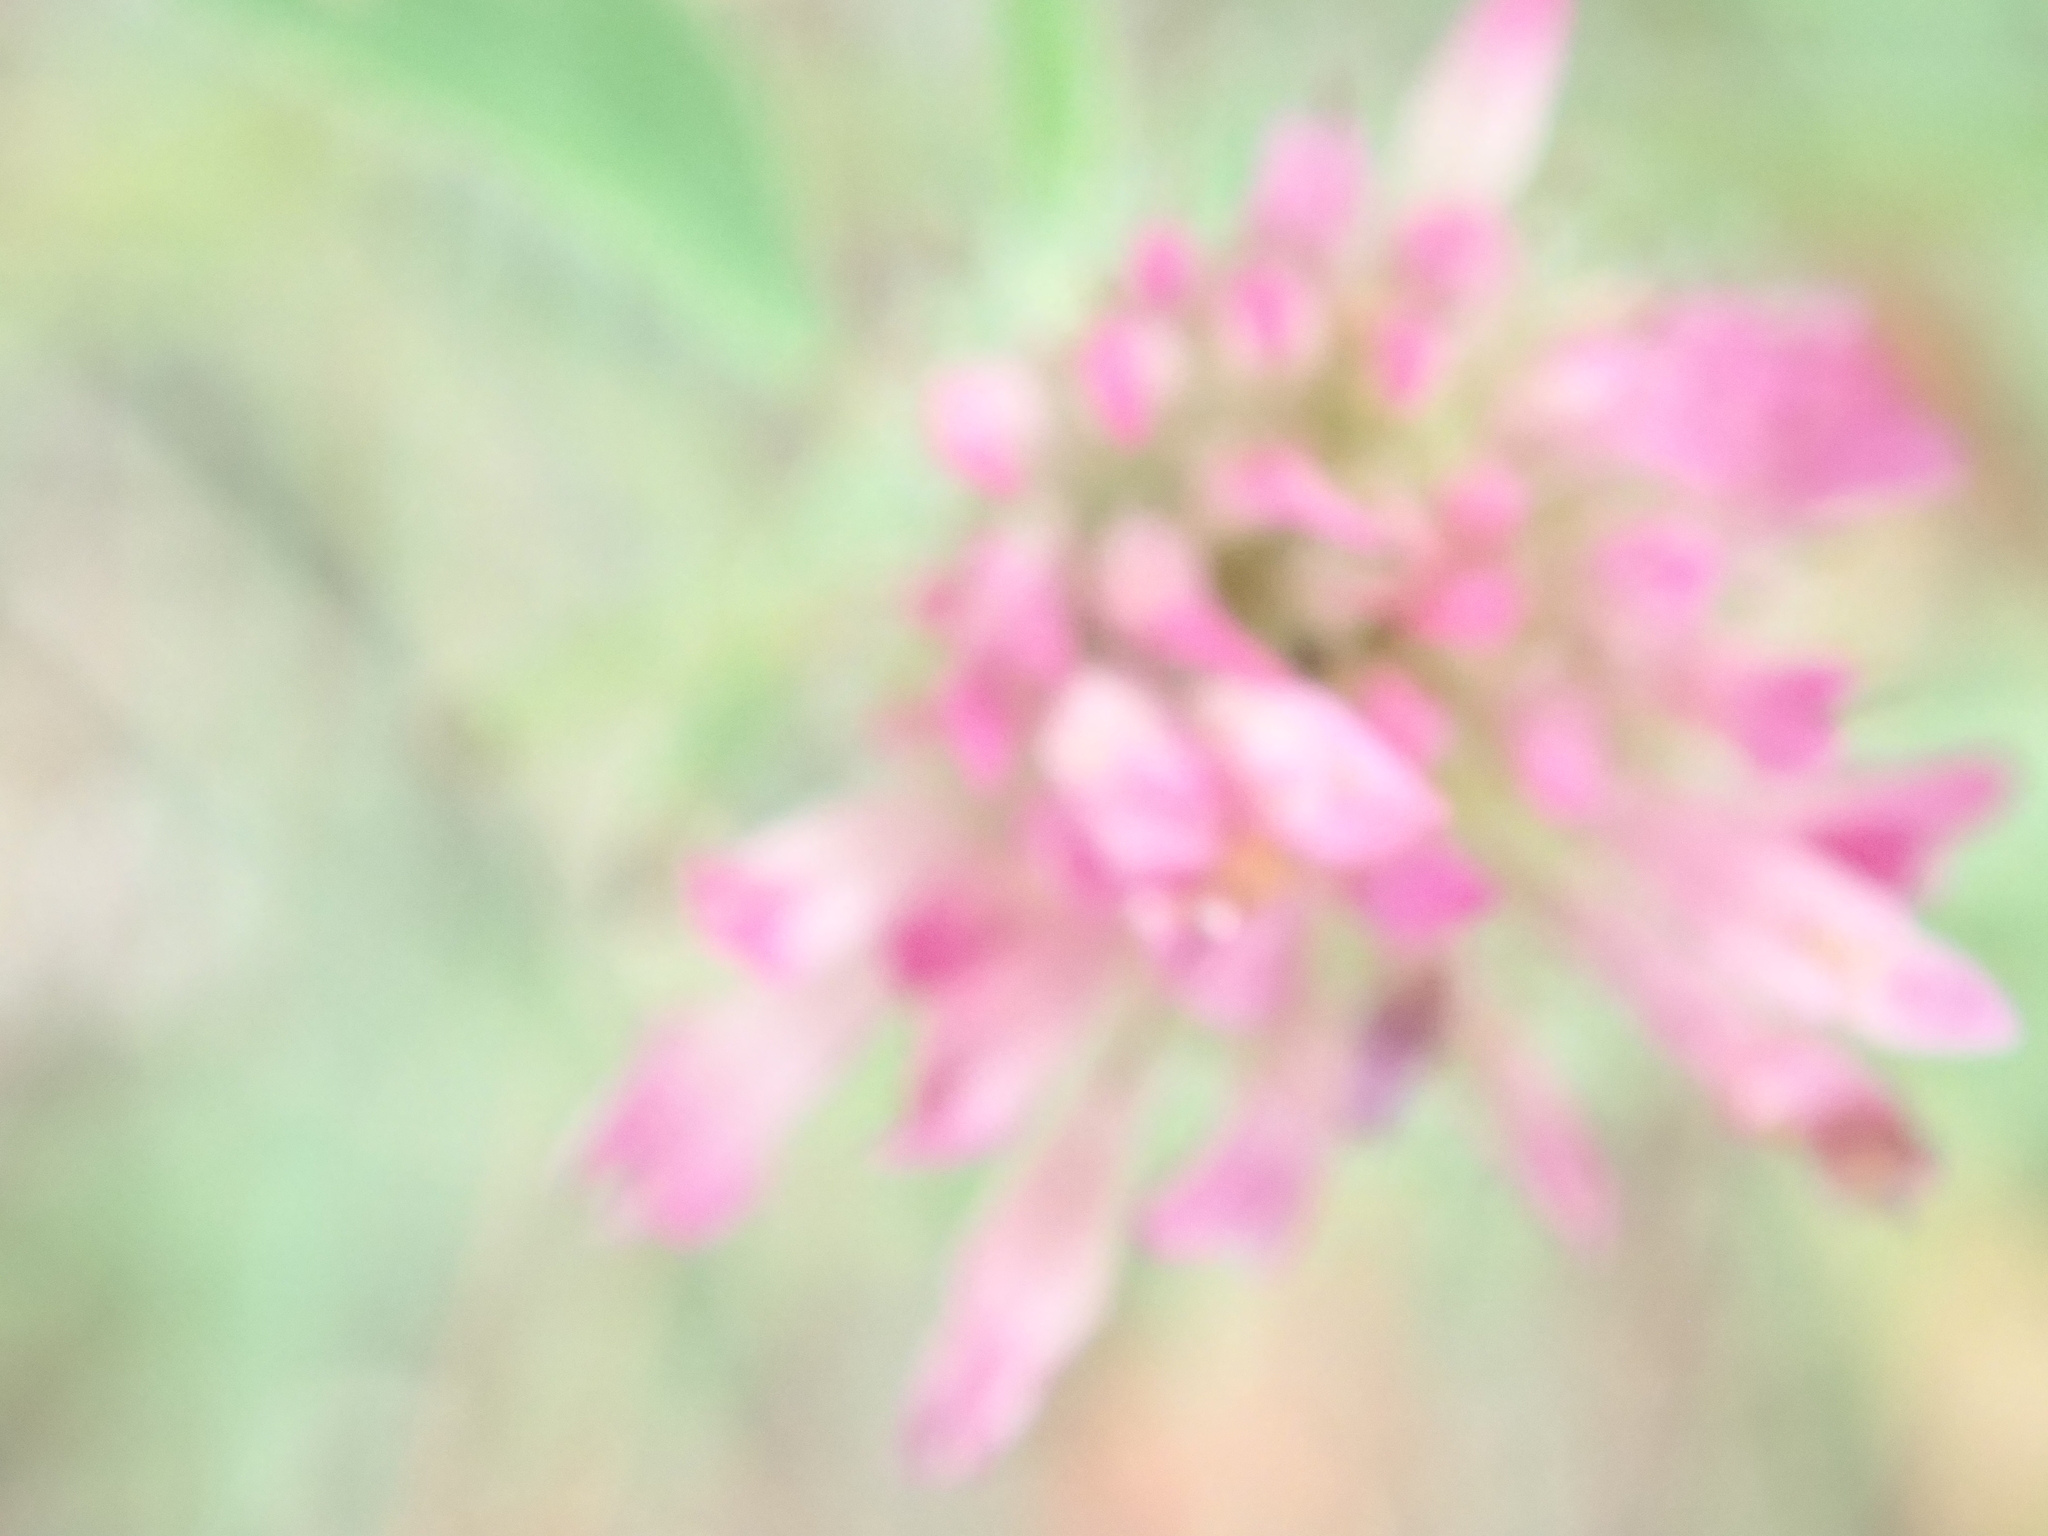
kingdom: Plantae
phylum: Tracheophyta
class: Magnoliopsida
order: Fabales
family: Fabaceae
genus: Trifolium
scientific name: Trifolium pratense
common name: Red clover
